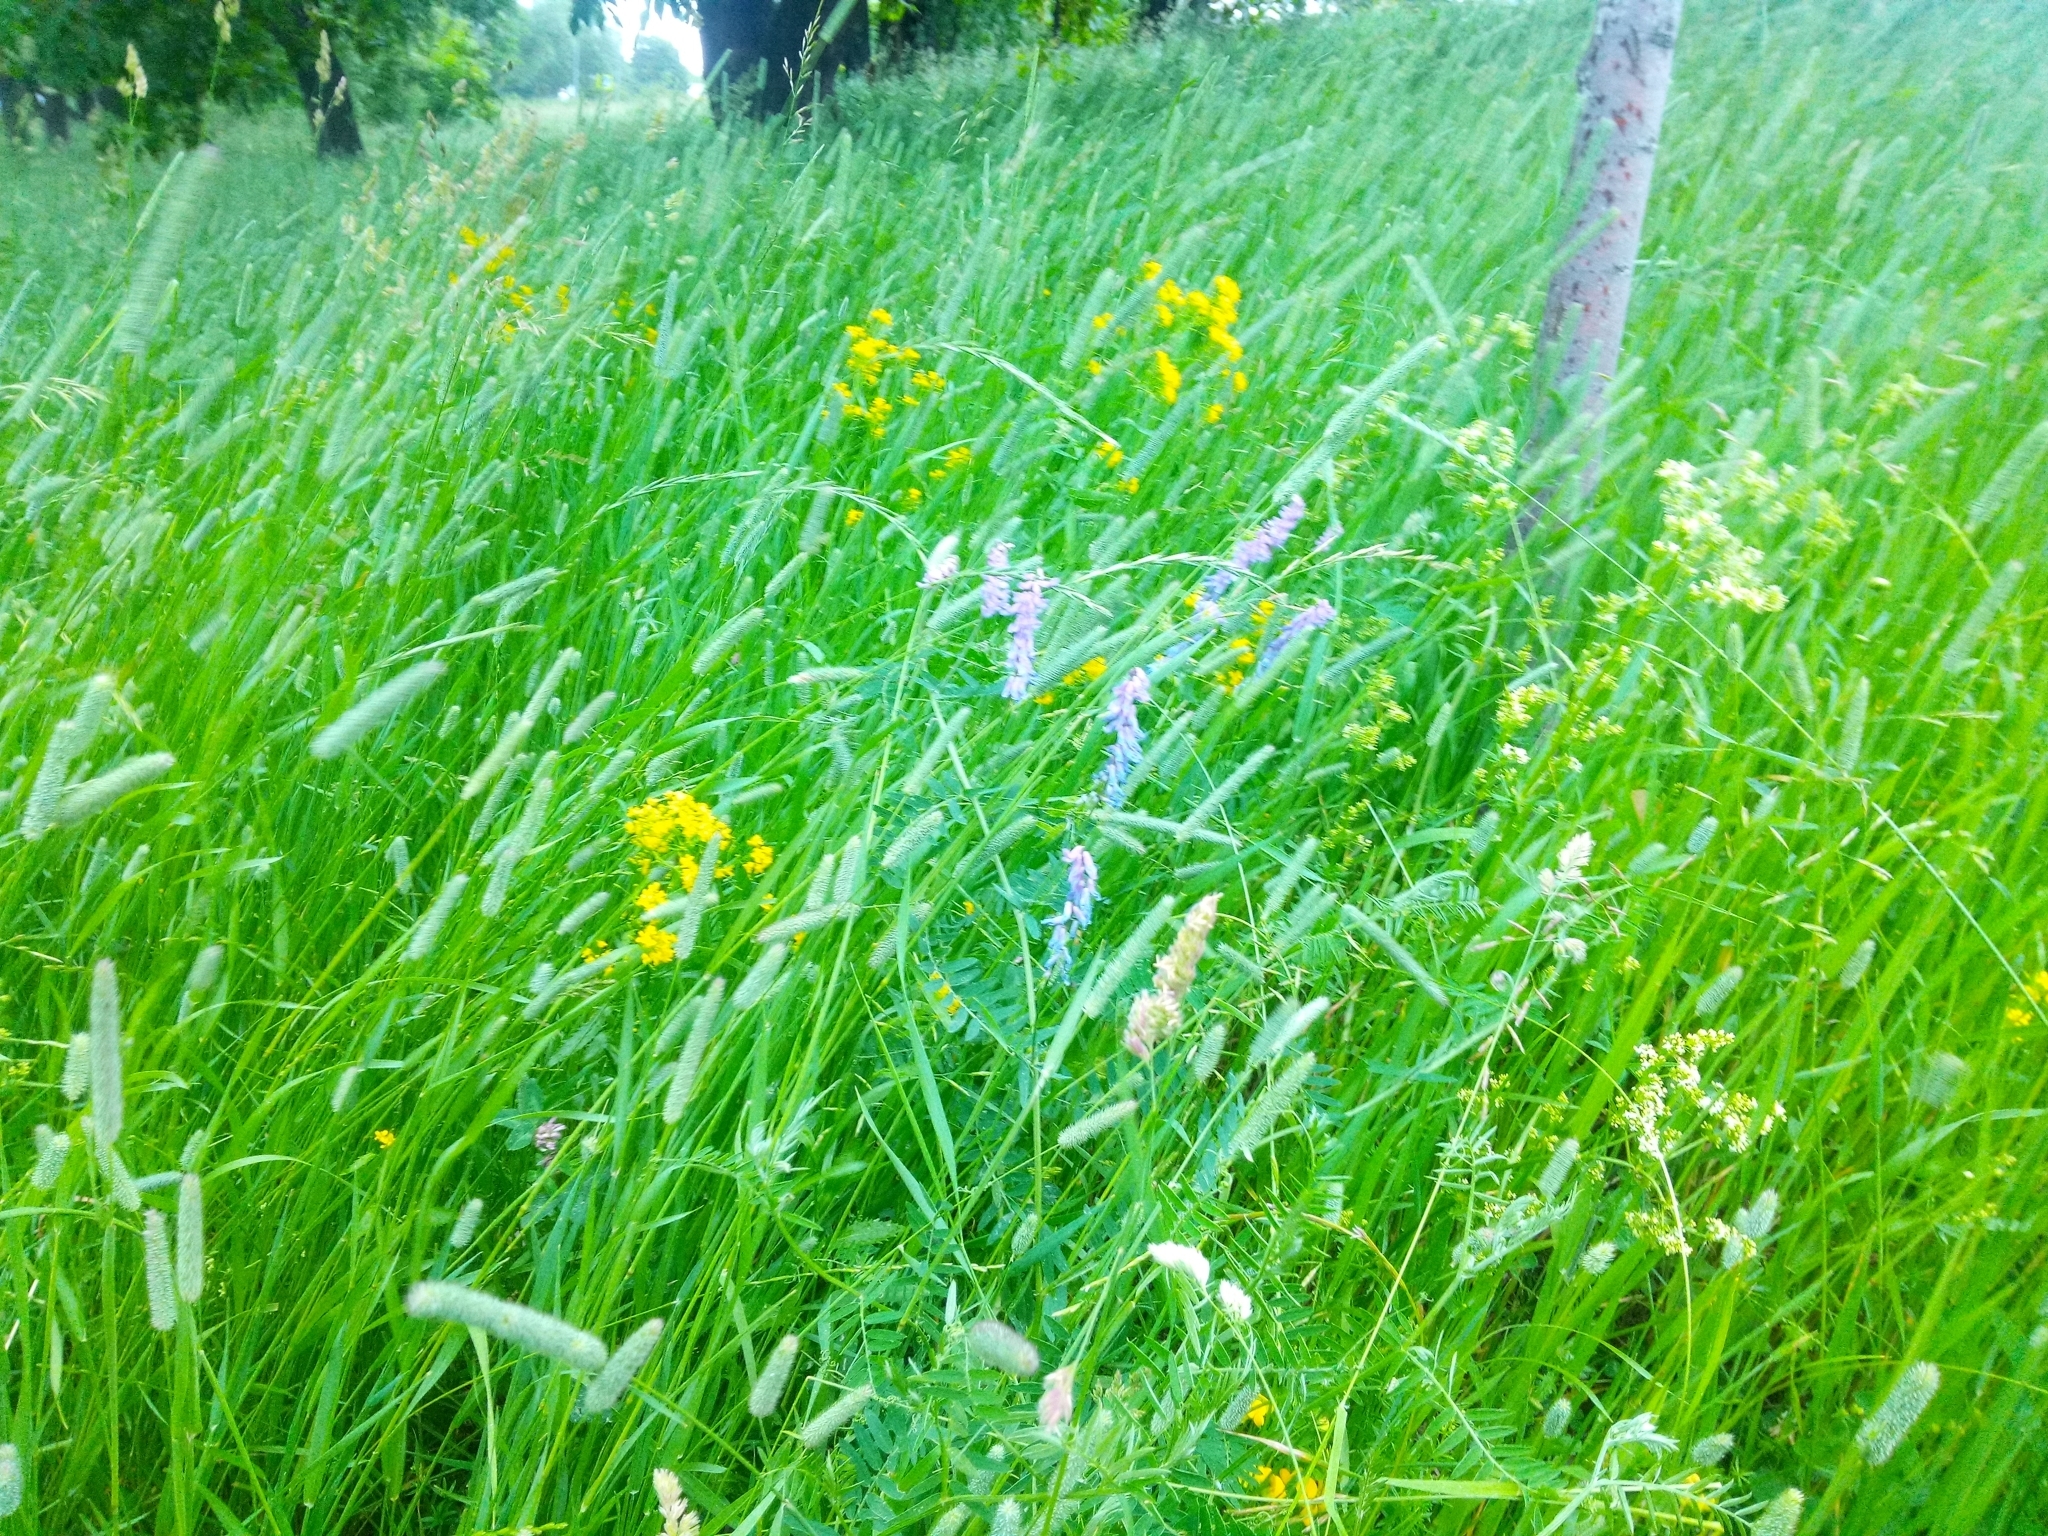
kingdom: Plantae
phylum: Tracheophyta
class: Magnoliopsida
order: Fabales
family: Fabaceae
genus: Vicia
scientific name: Vicia cracca
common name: Bird vetch
